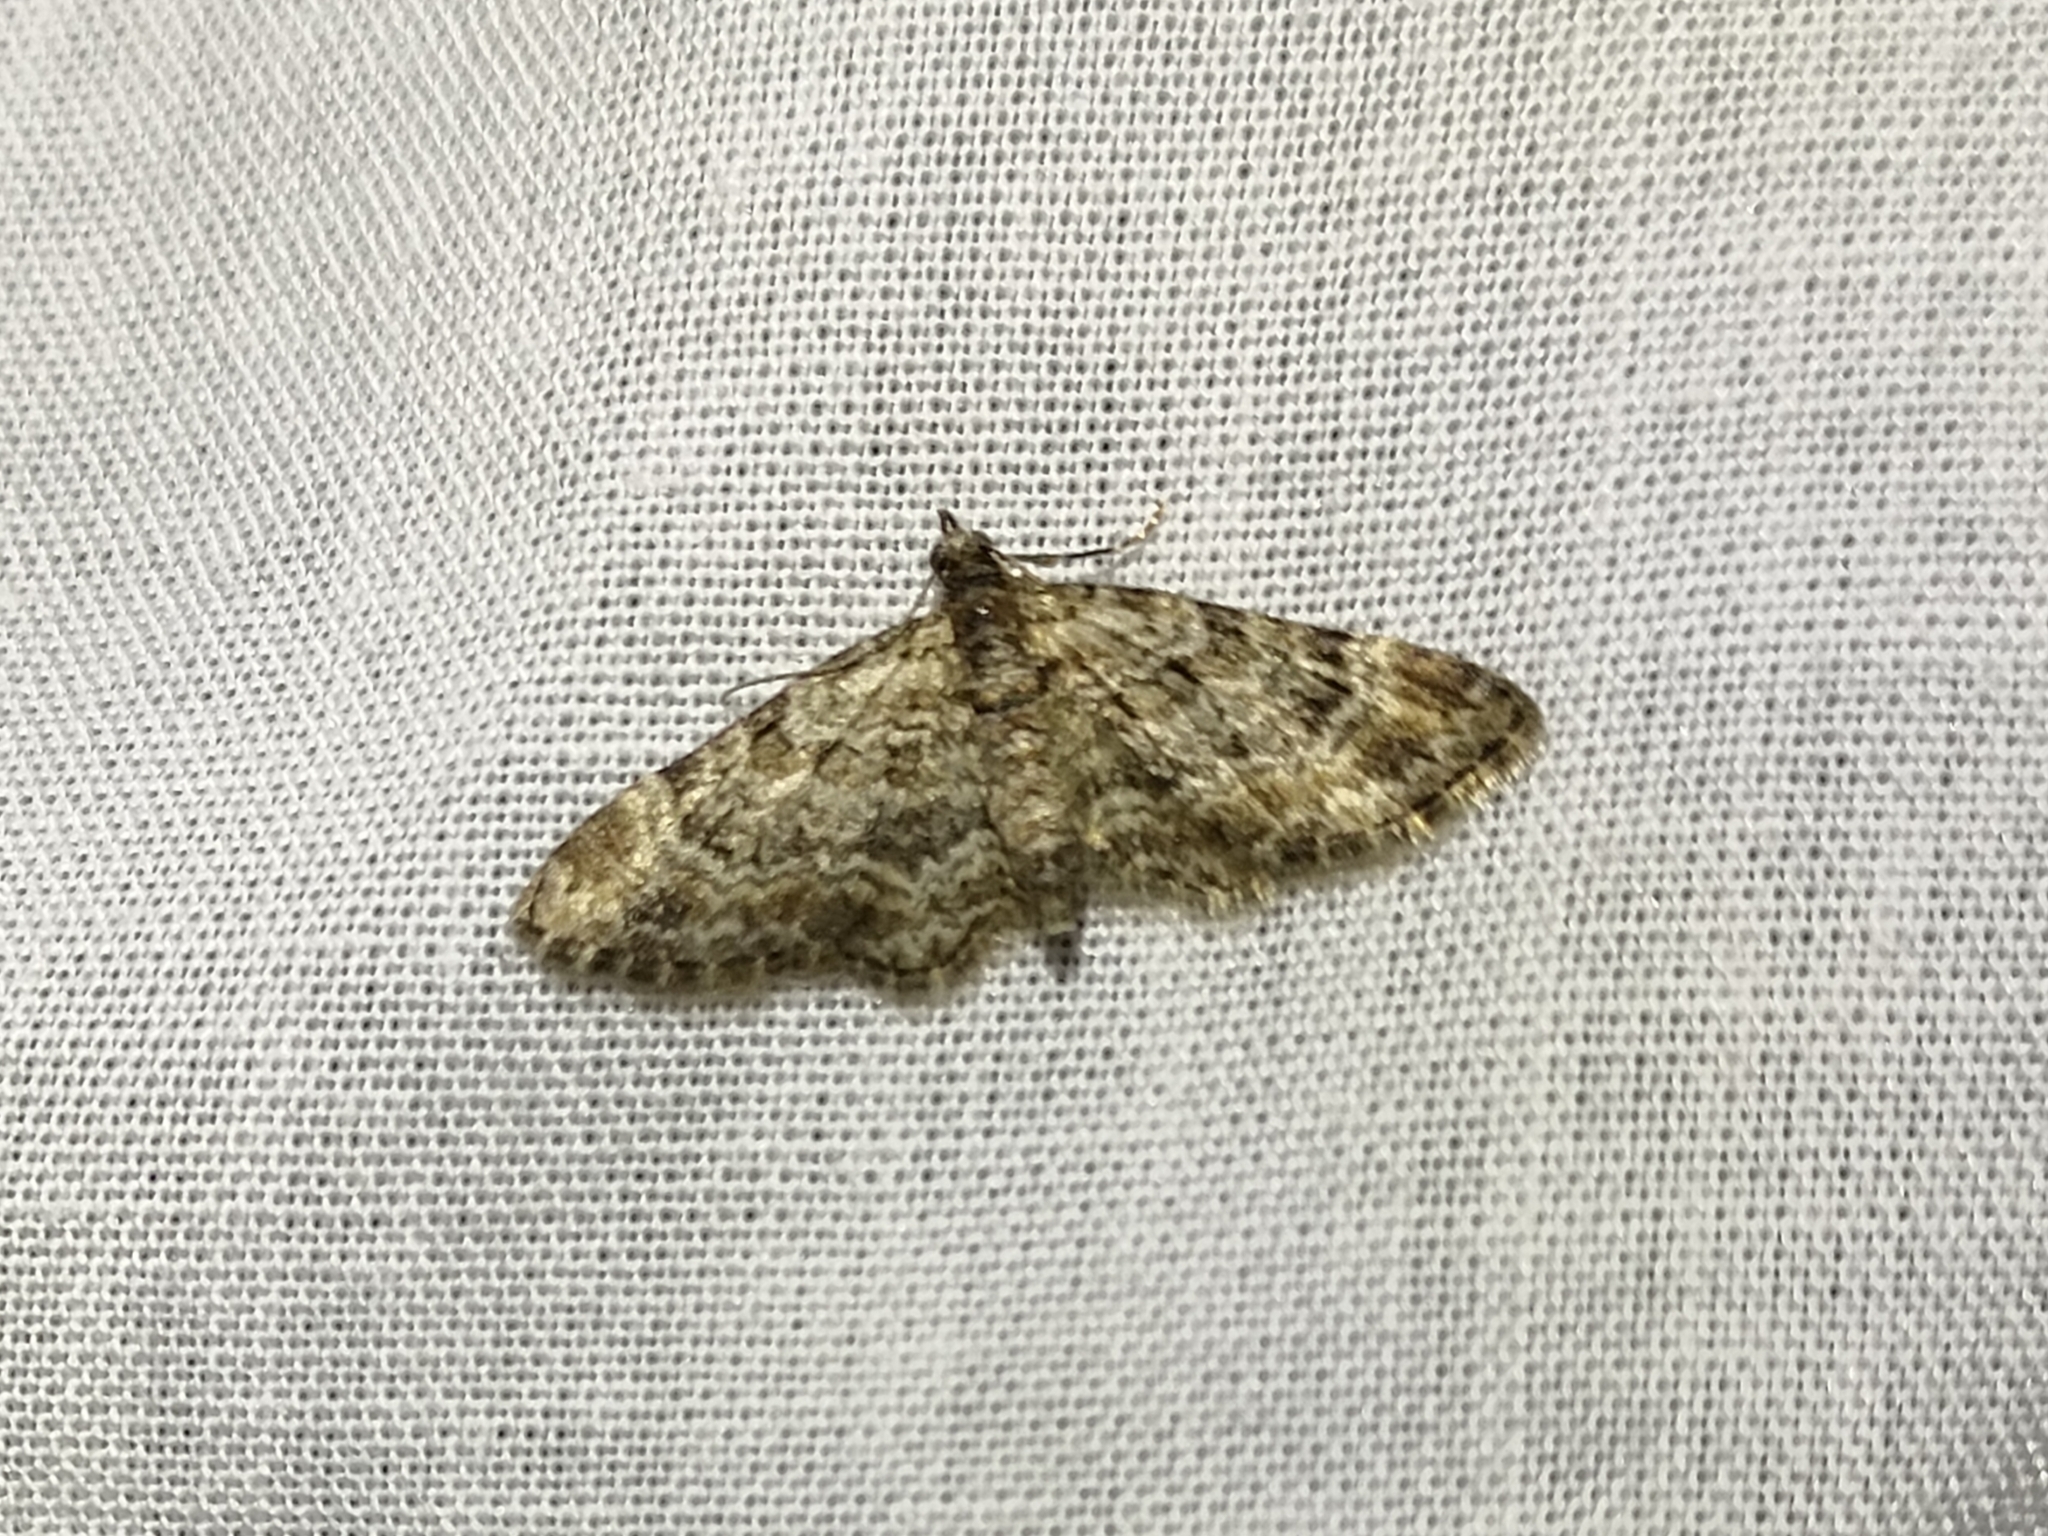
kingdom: Animalia
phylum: Arthropoda
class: Insecta
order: Lepidoptera
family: Geometridae
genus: Gymnoscelis
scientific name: Gymnoscelis rufifasciata
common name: Double-striped pug
